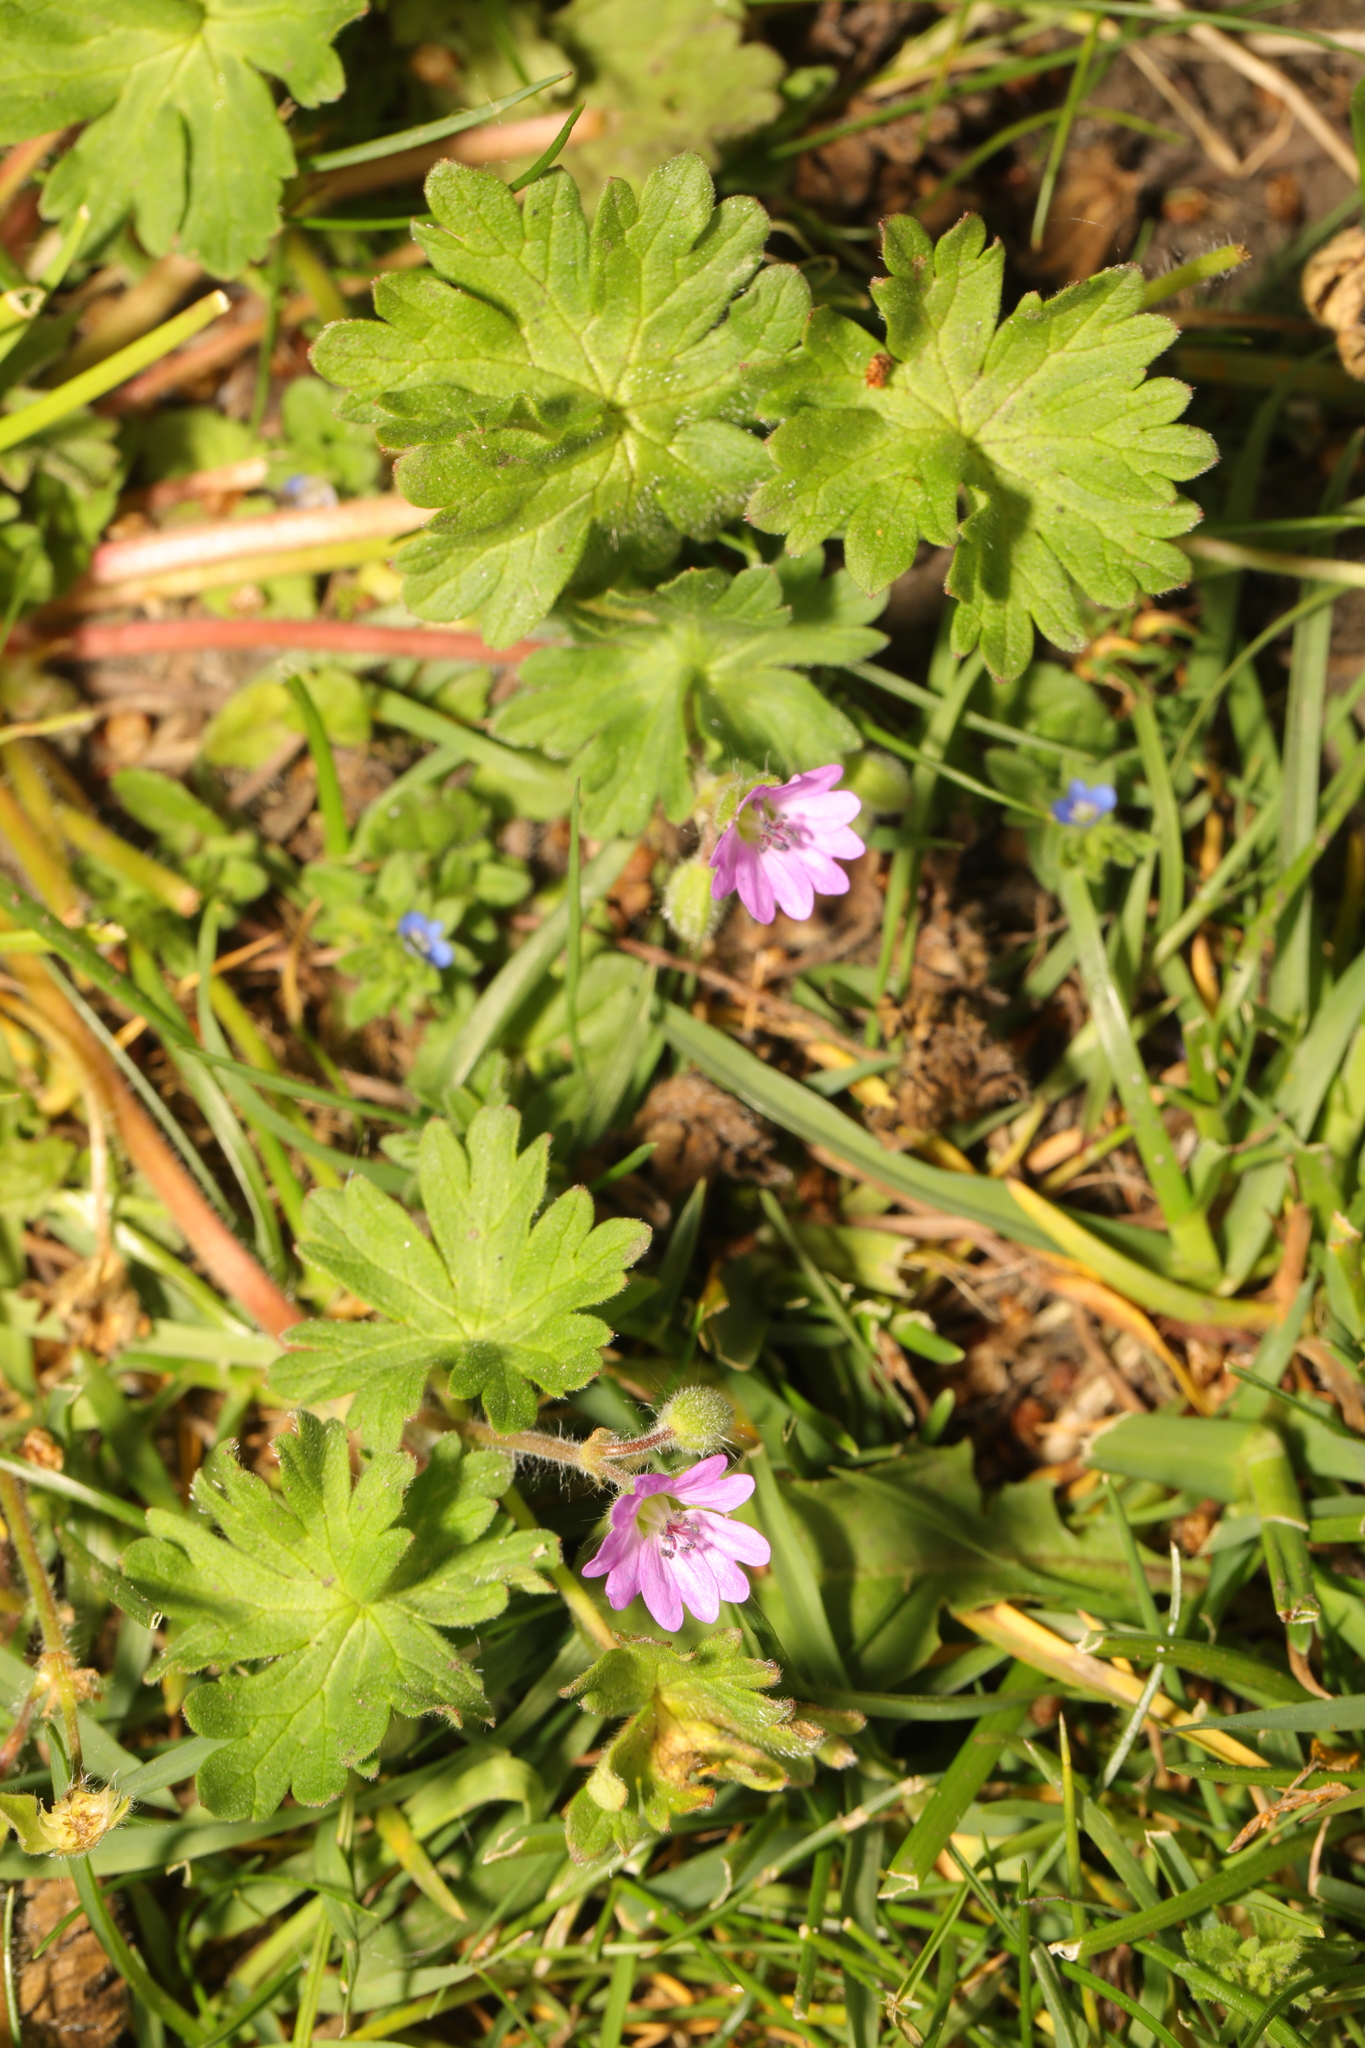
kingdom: Plantae
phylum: Tracheophyta
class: Magnoliopsida
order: Geraniales
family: Geraniaceae
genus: Geranium
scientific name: Geranium molle
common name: Dove's-foot crane's-bill
